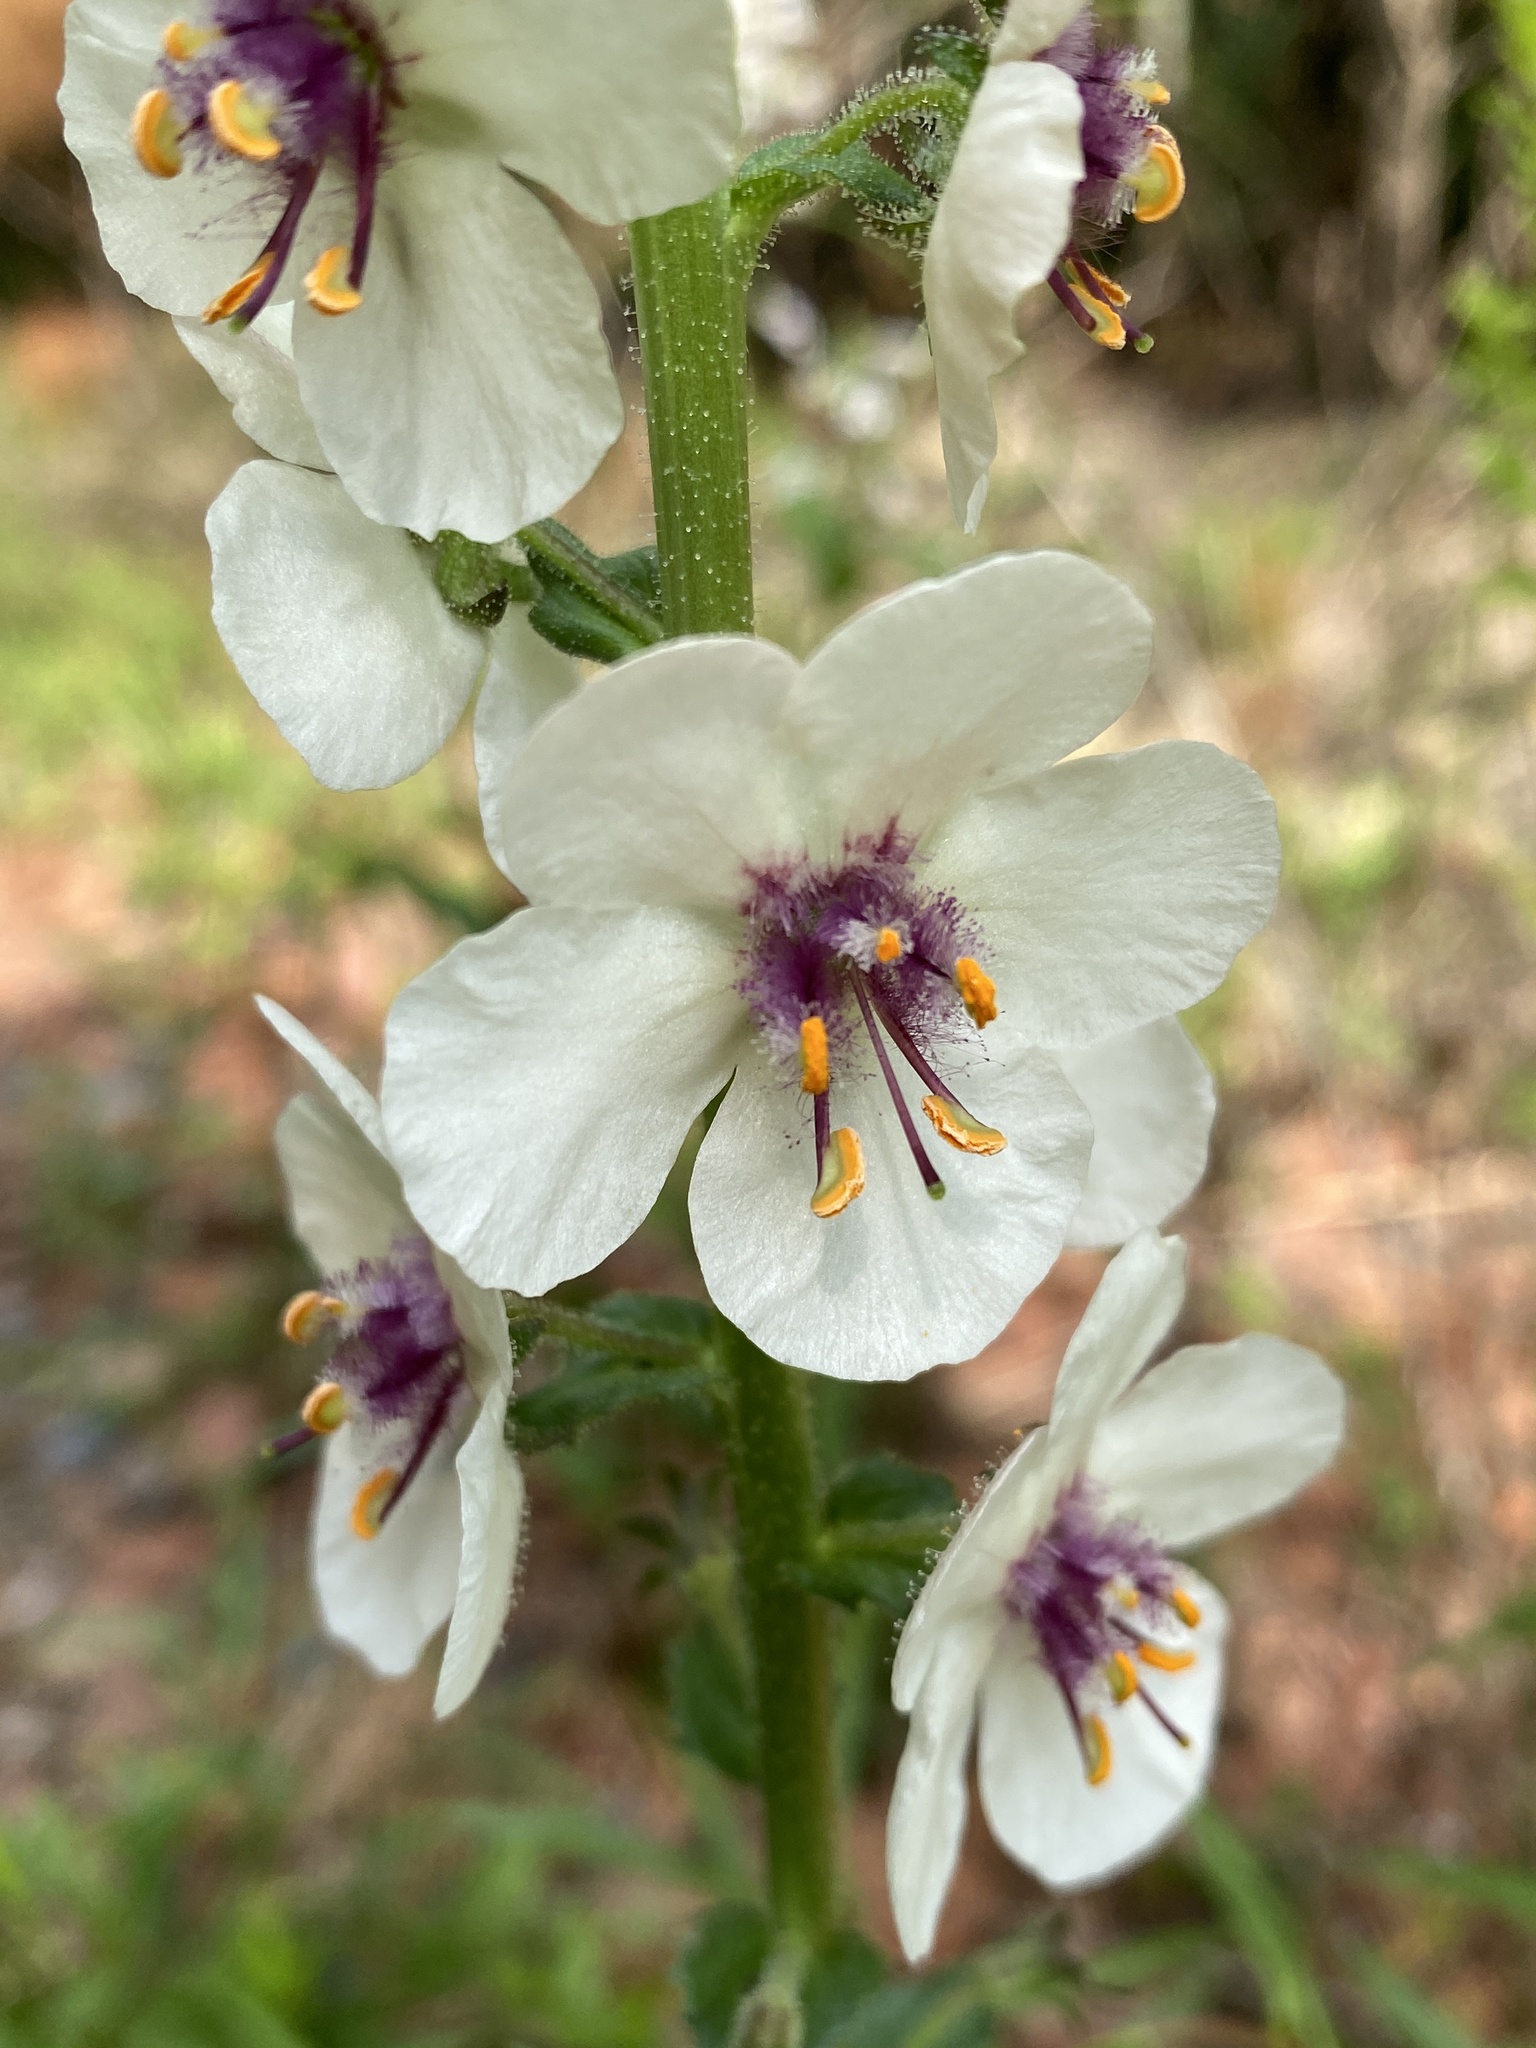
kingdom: Plantae
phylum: Tracheophyta
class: Magnoliopsida
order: Lamiales
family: Scrophulariaceae
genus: Verbascum
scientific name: Verbascum blattaria
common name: Moth mullein
